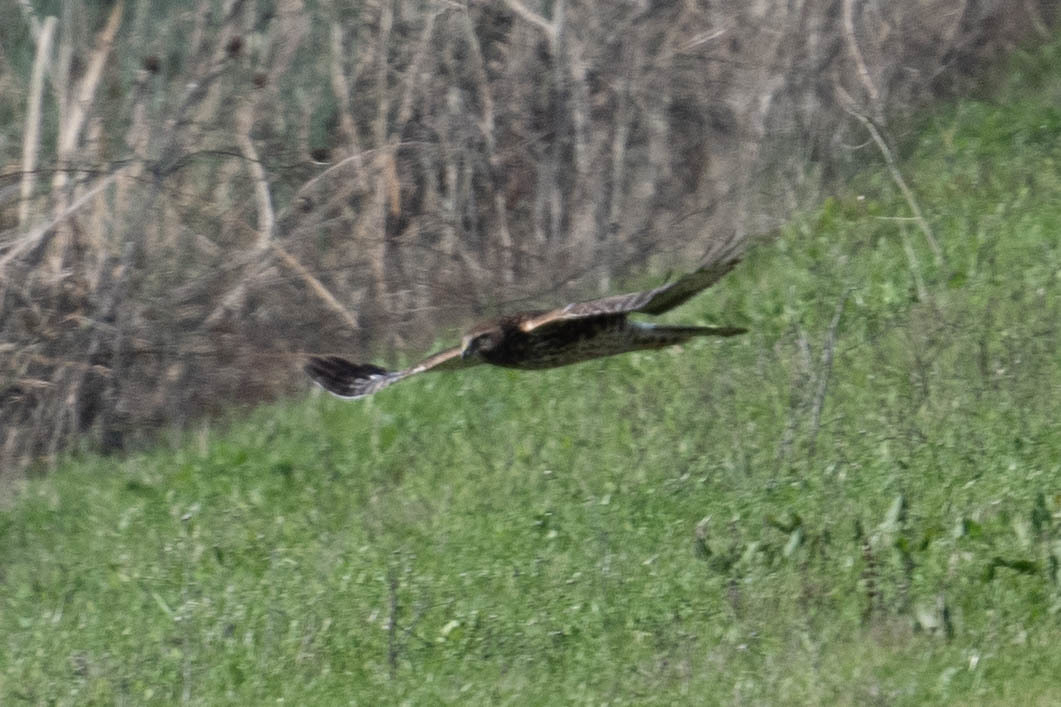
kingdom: Animalia
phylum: Chordata
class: Aves
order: Accipitriformes
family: Accipitridae
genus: Circus
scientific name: Circus cyaneus
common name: Hen harrier
